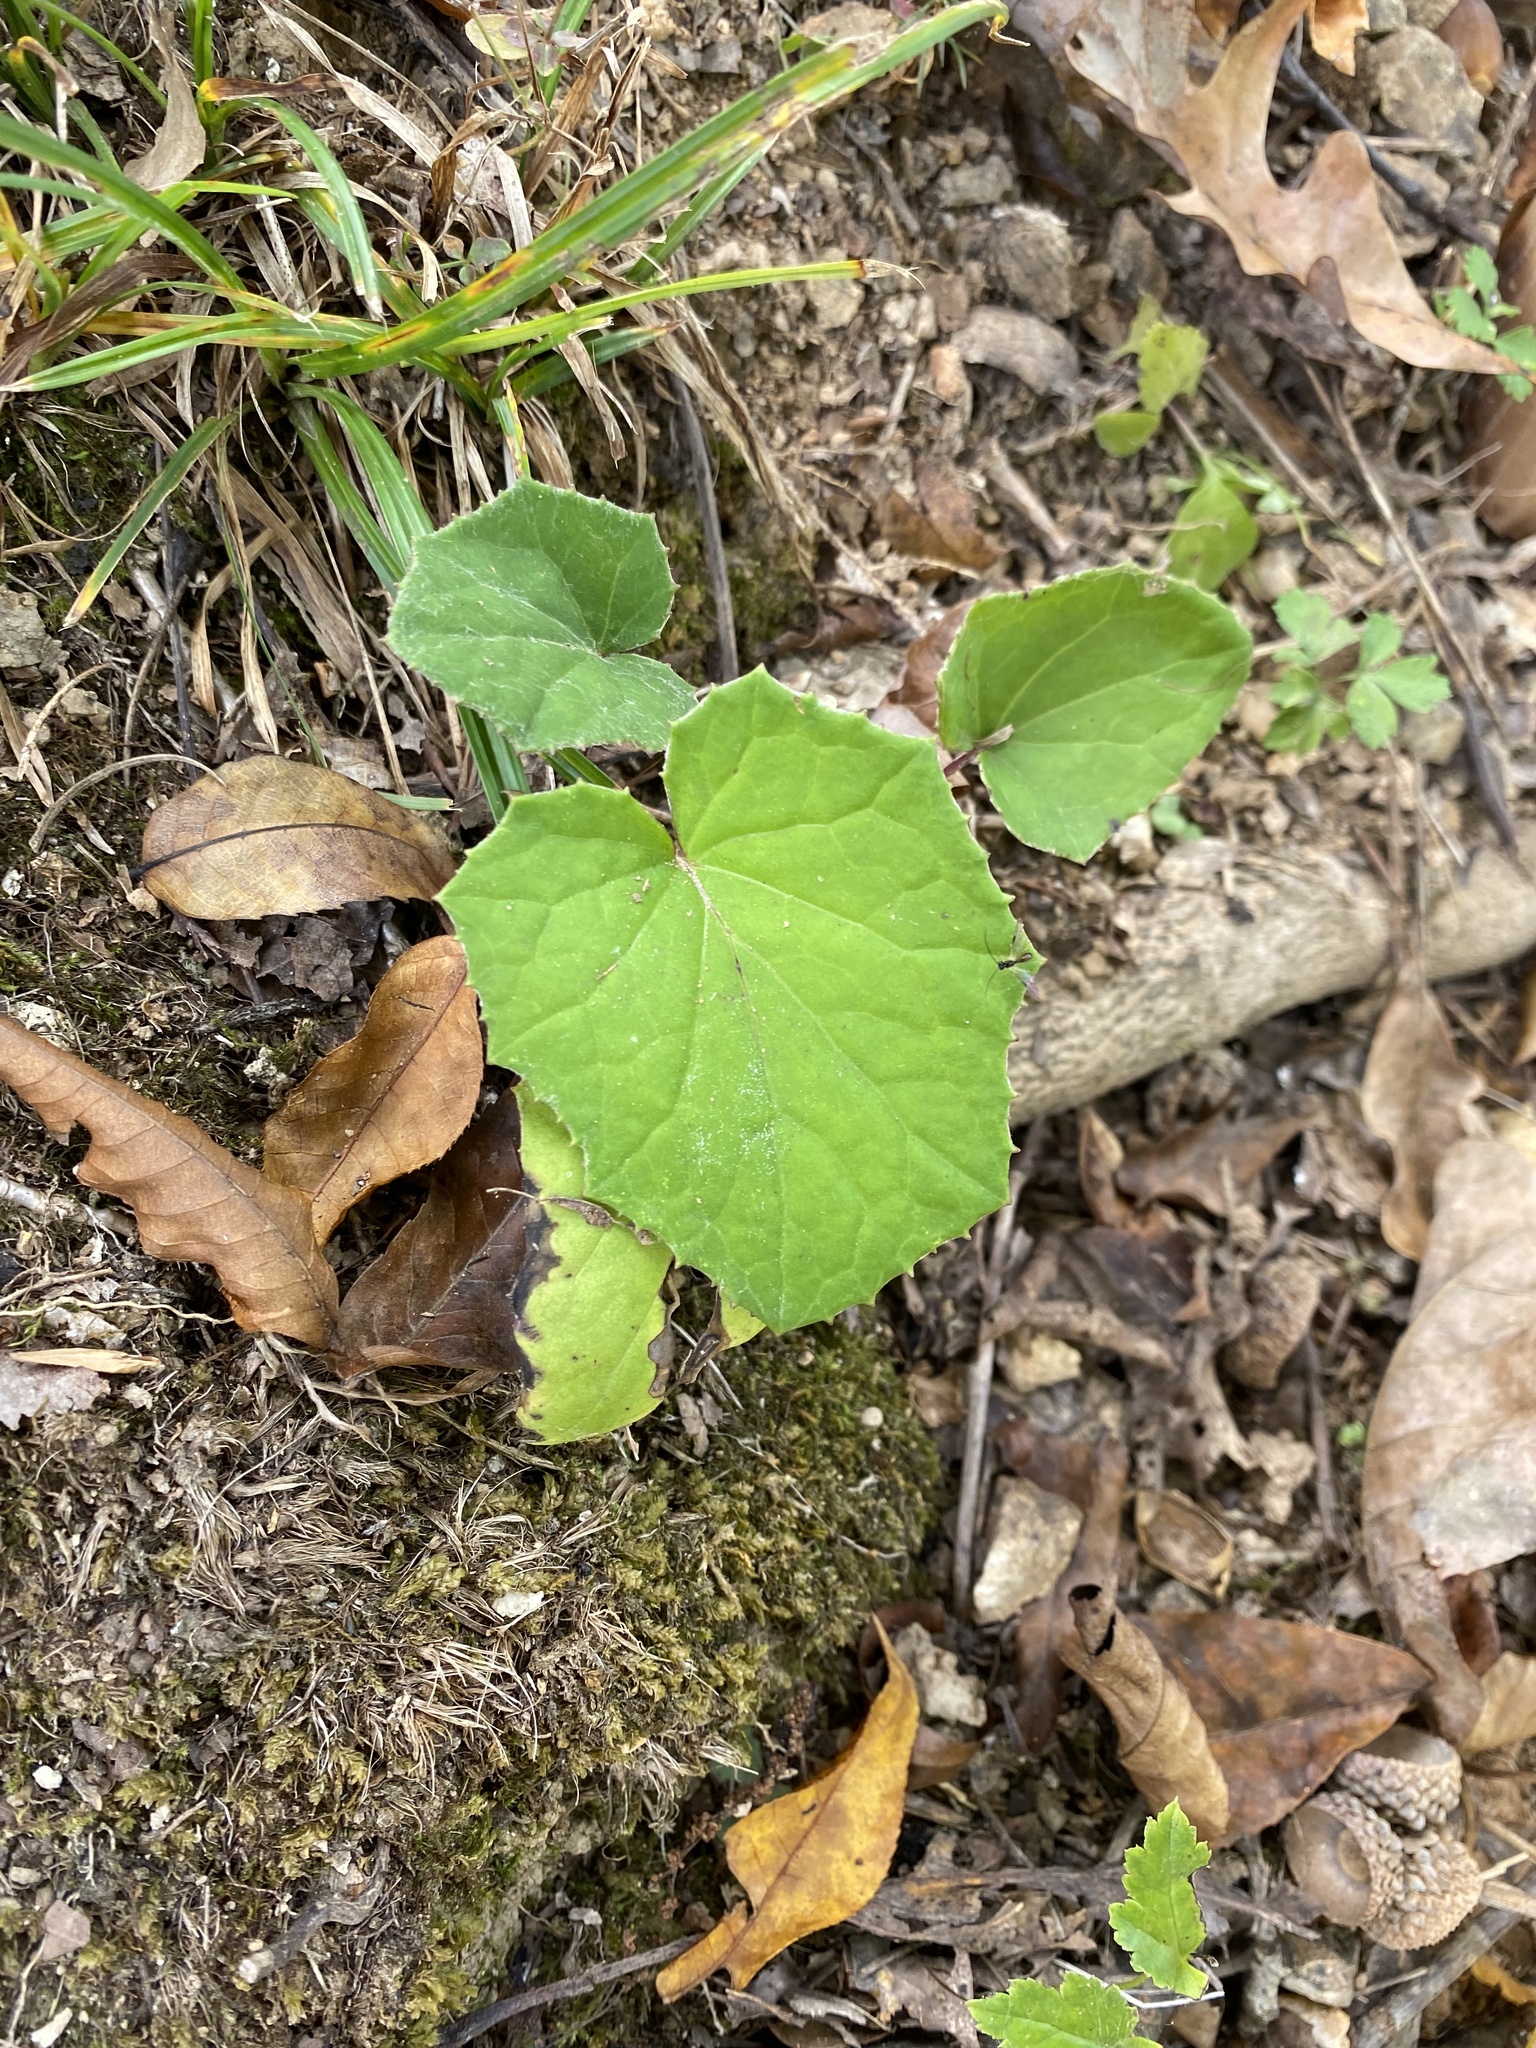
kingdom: Plantae
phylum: Tracheophyta
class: Magnoliopsida
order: Asterales
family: Asteraceae
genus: Tussilago
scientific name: Tussilago farfara
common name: Coltsfoot
